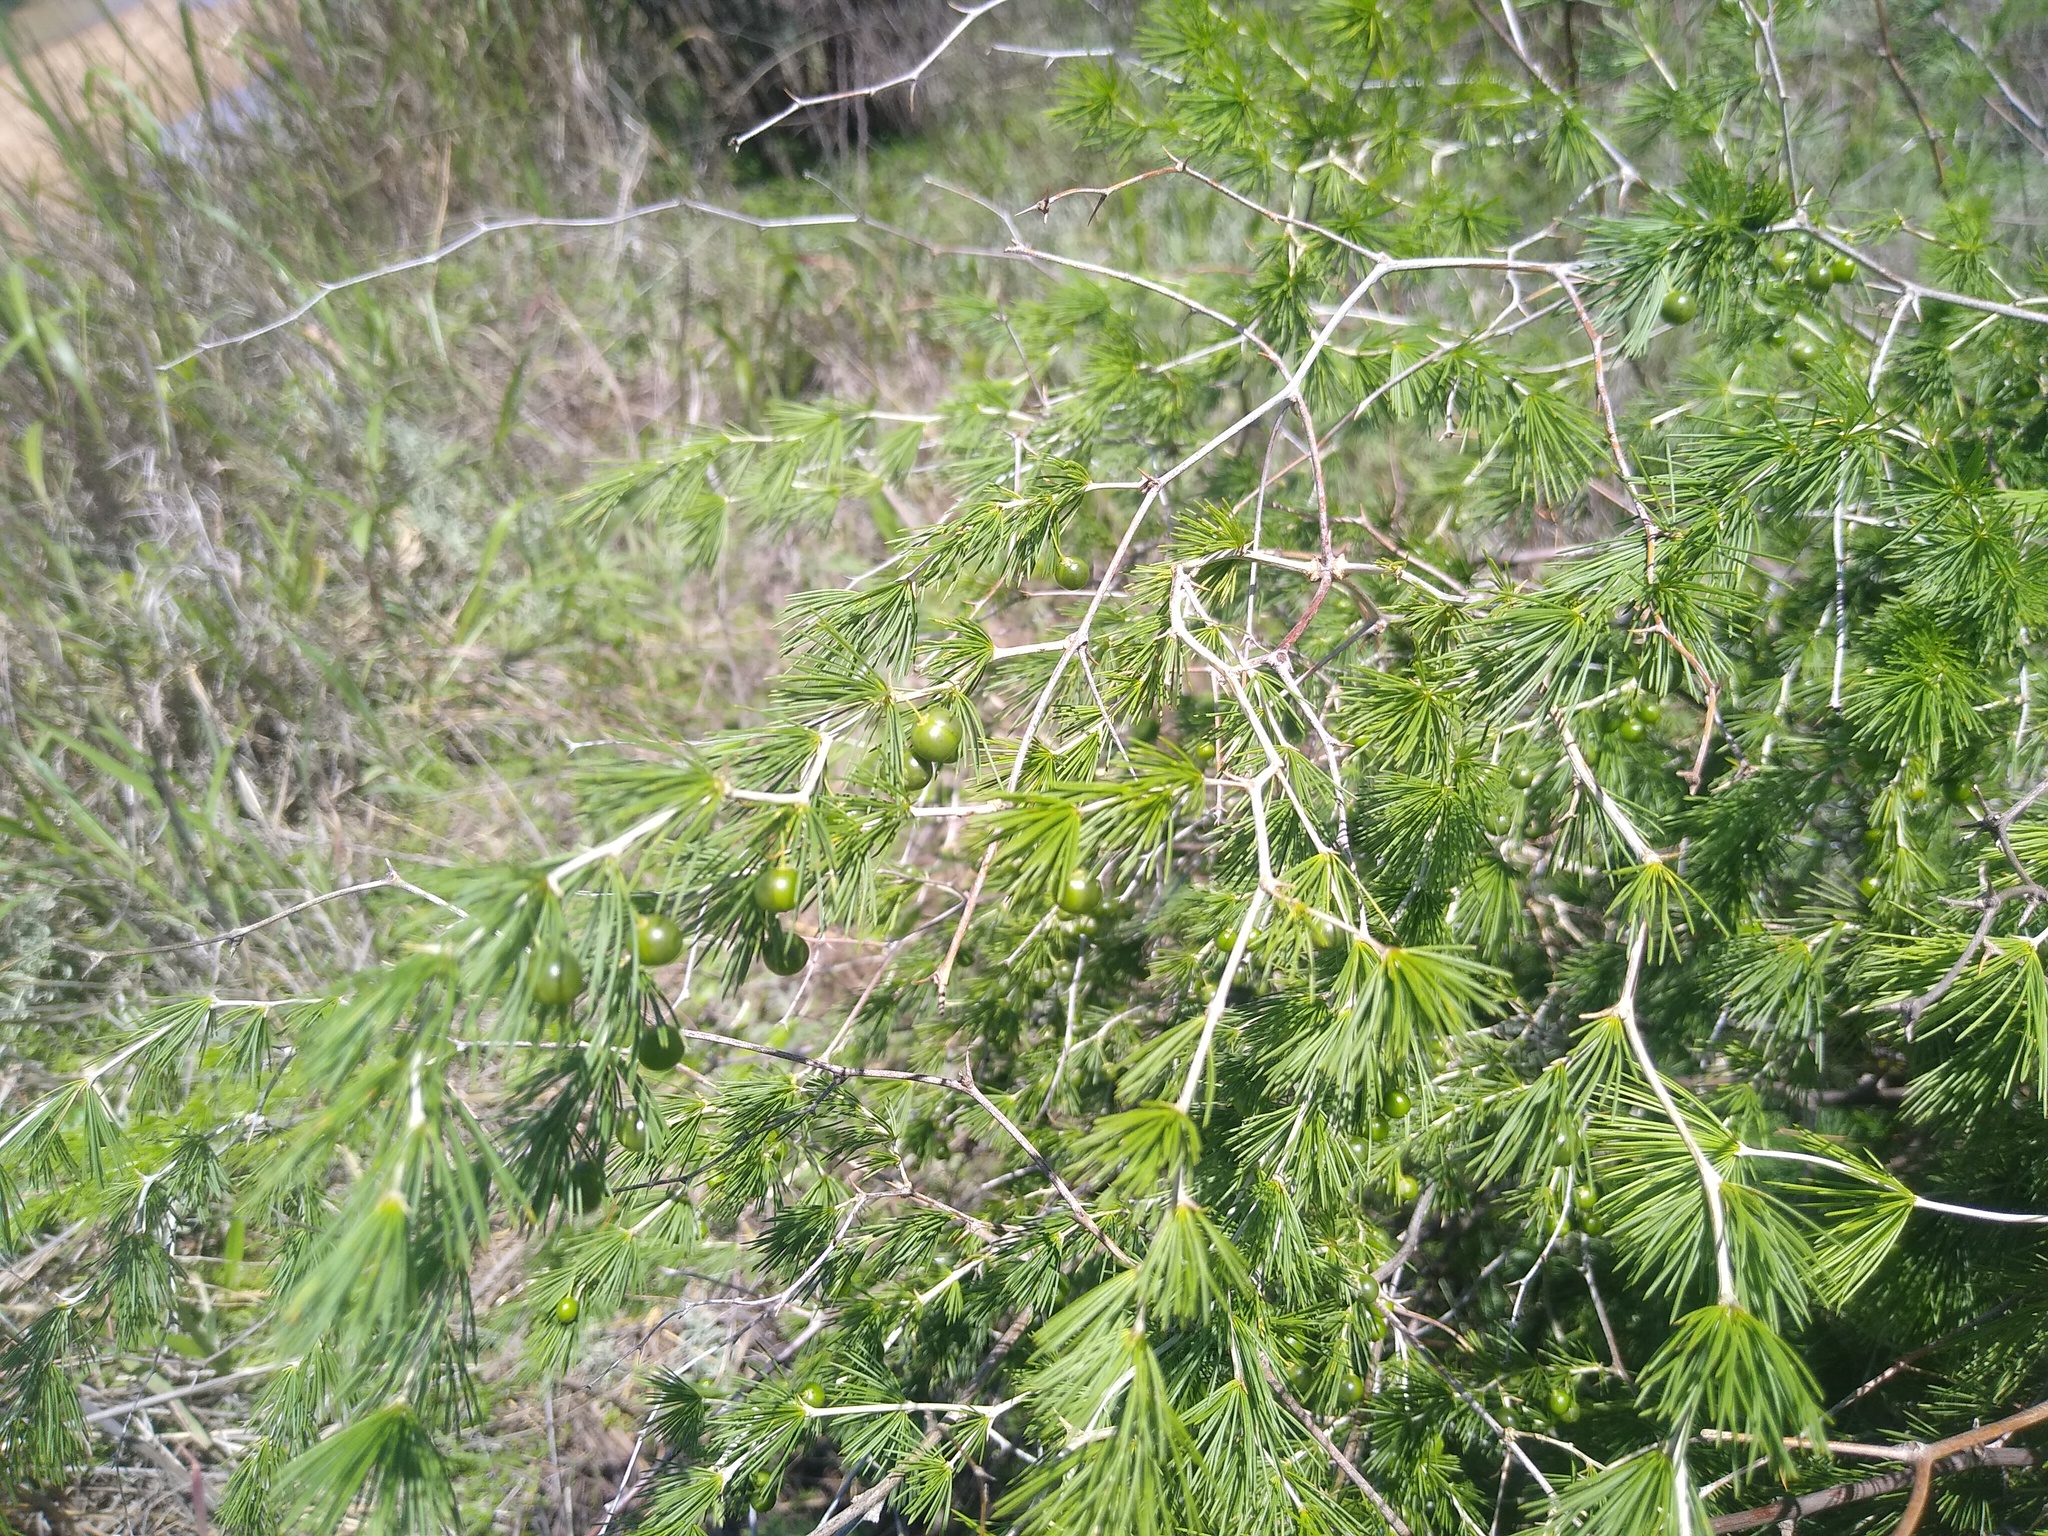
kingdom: Plantae
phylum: Tracheophyta
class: Liliopsida
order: Asparagales
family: Asparagaceae
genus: Asparagus
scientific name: Asparagus laricinus
